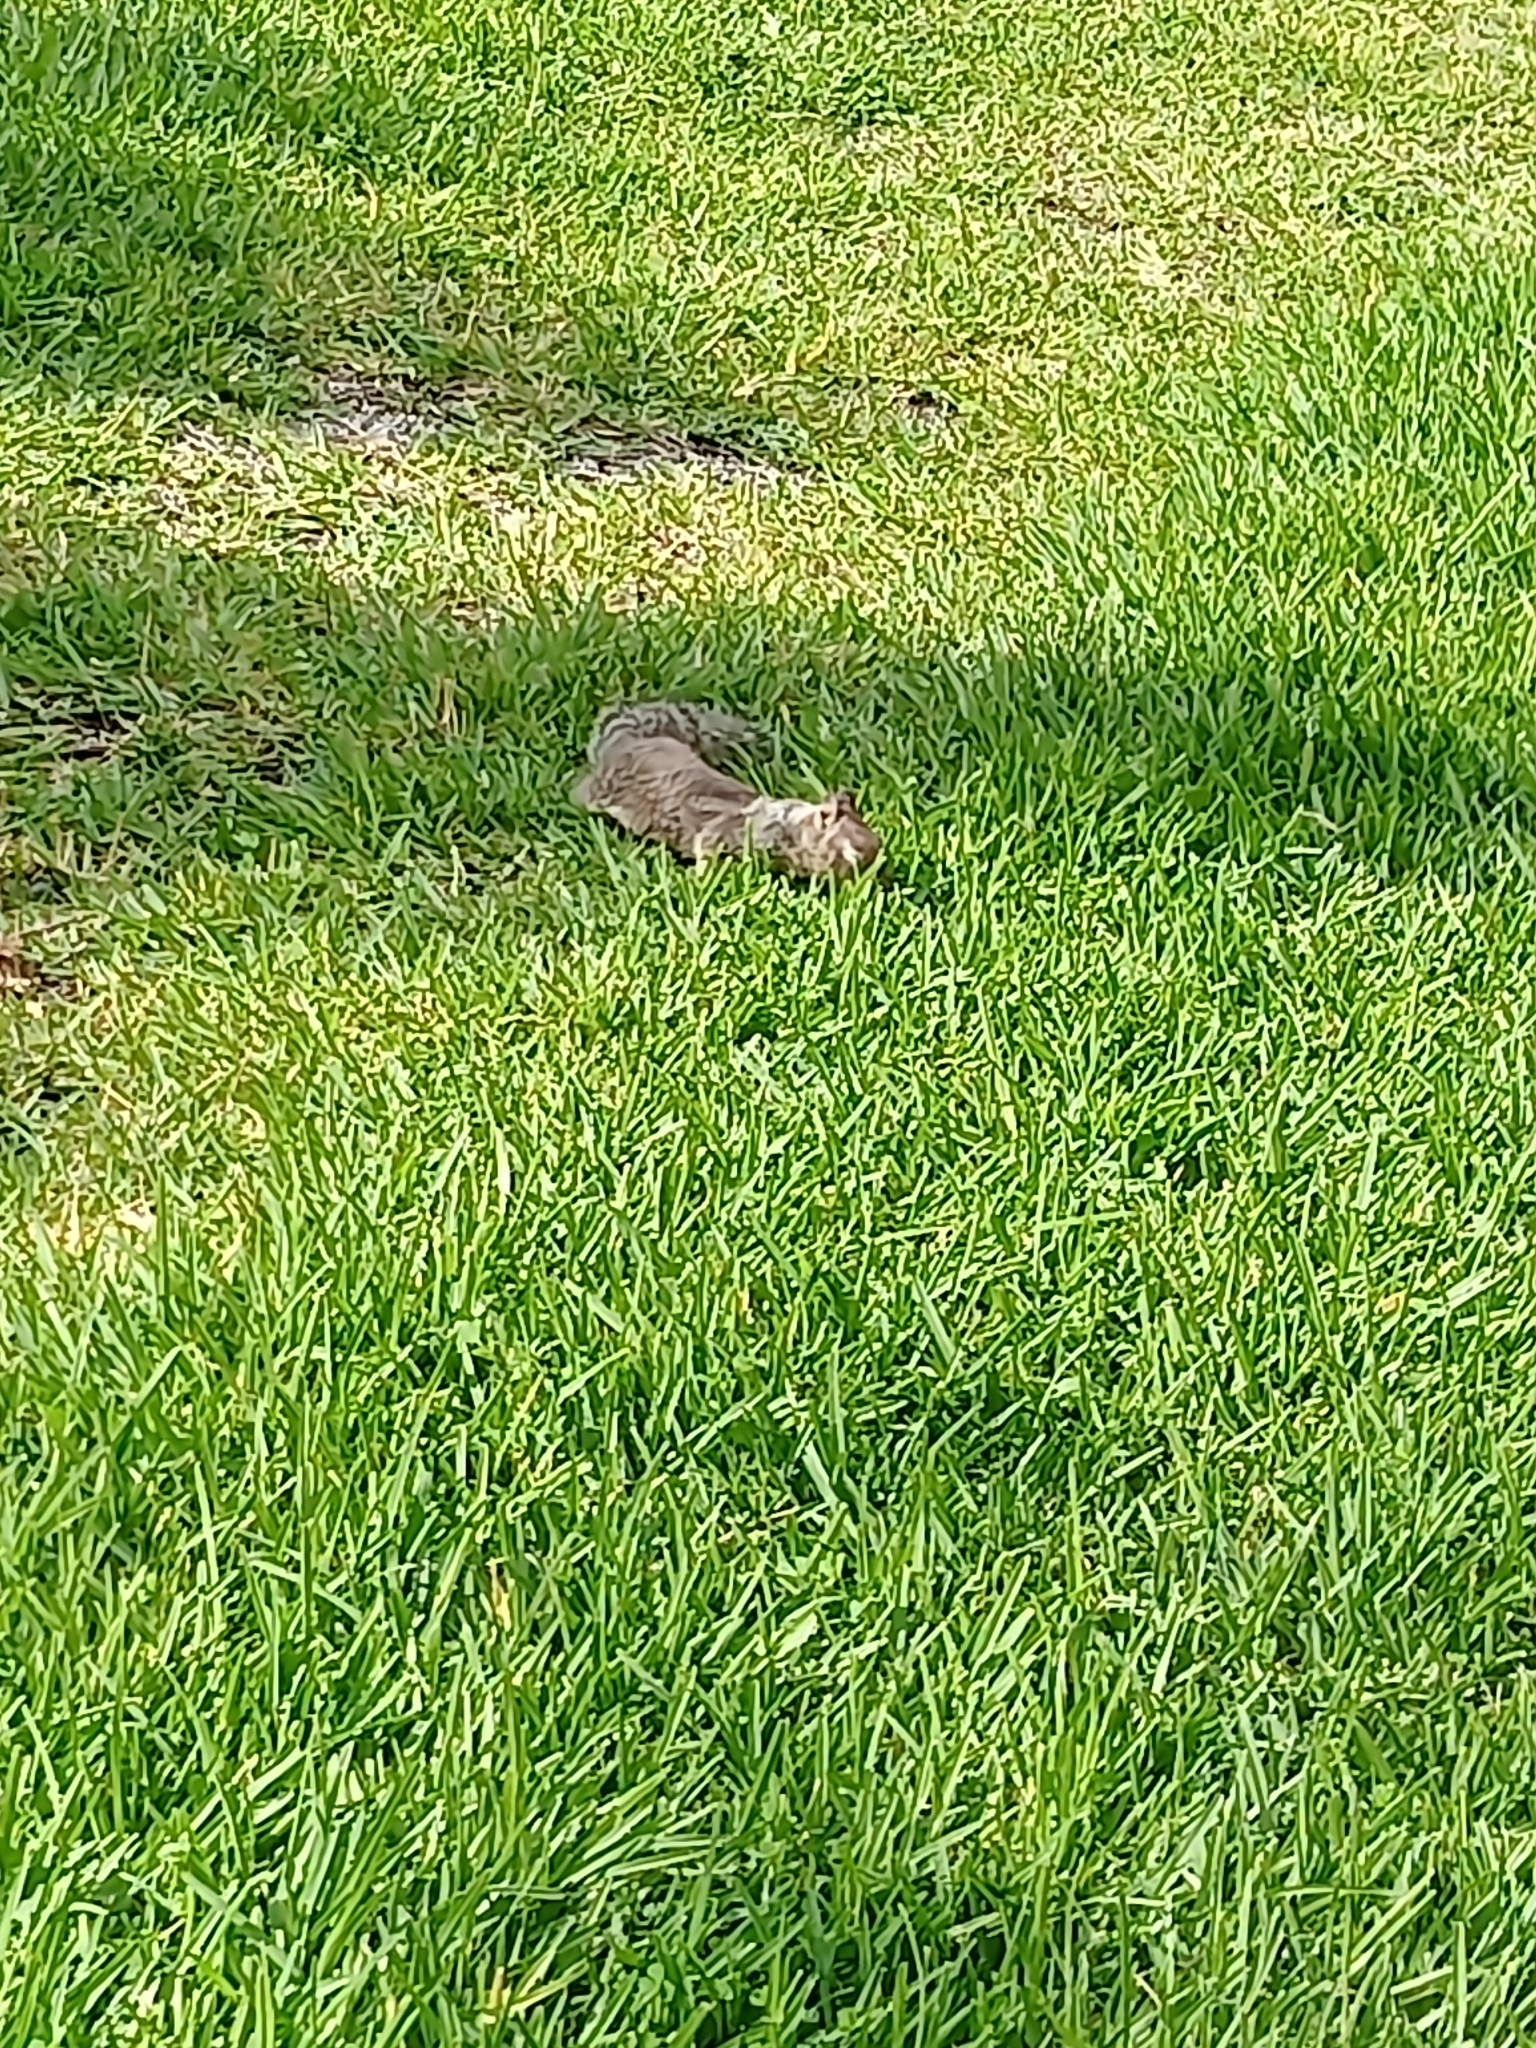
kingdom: Animalia
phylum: Chordata
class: Mammalia
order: Rodentia
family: Sciuridae
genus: Otospermophilus
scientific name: Otospermophilus beecheyi
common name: California ground squirrel
